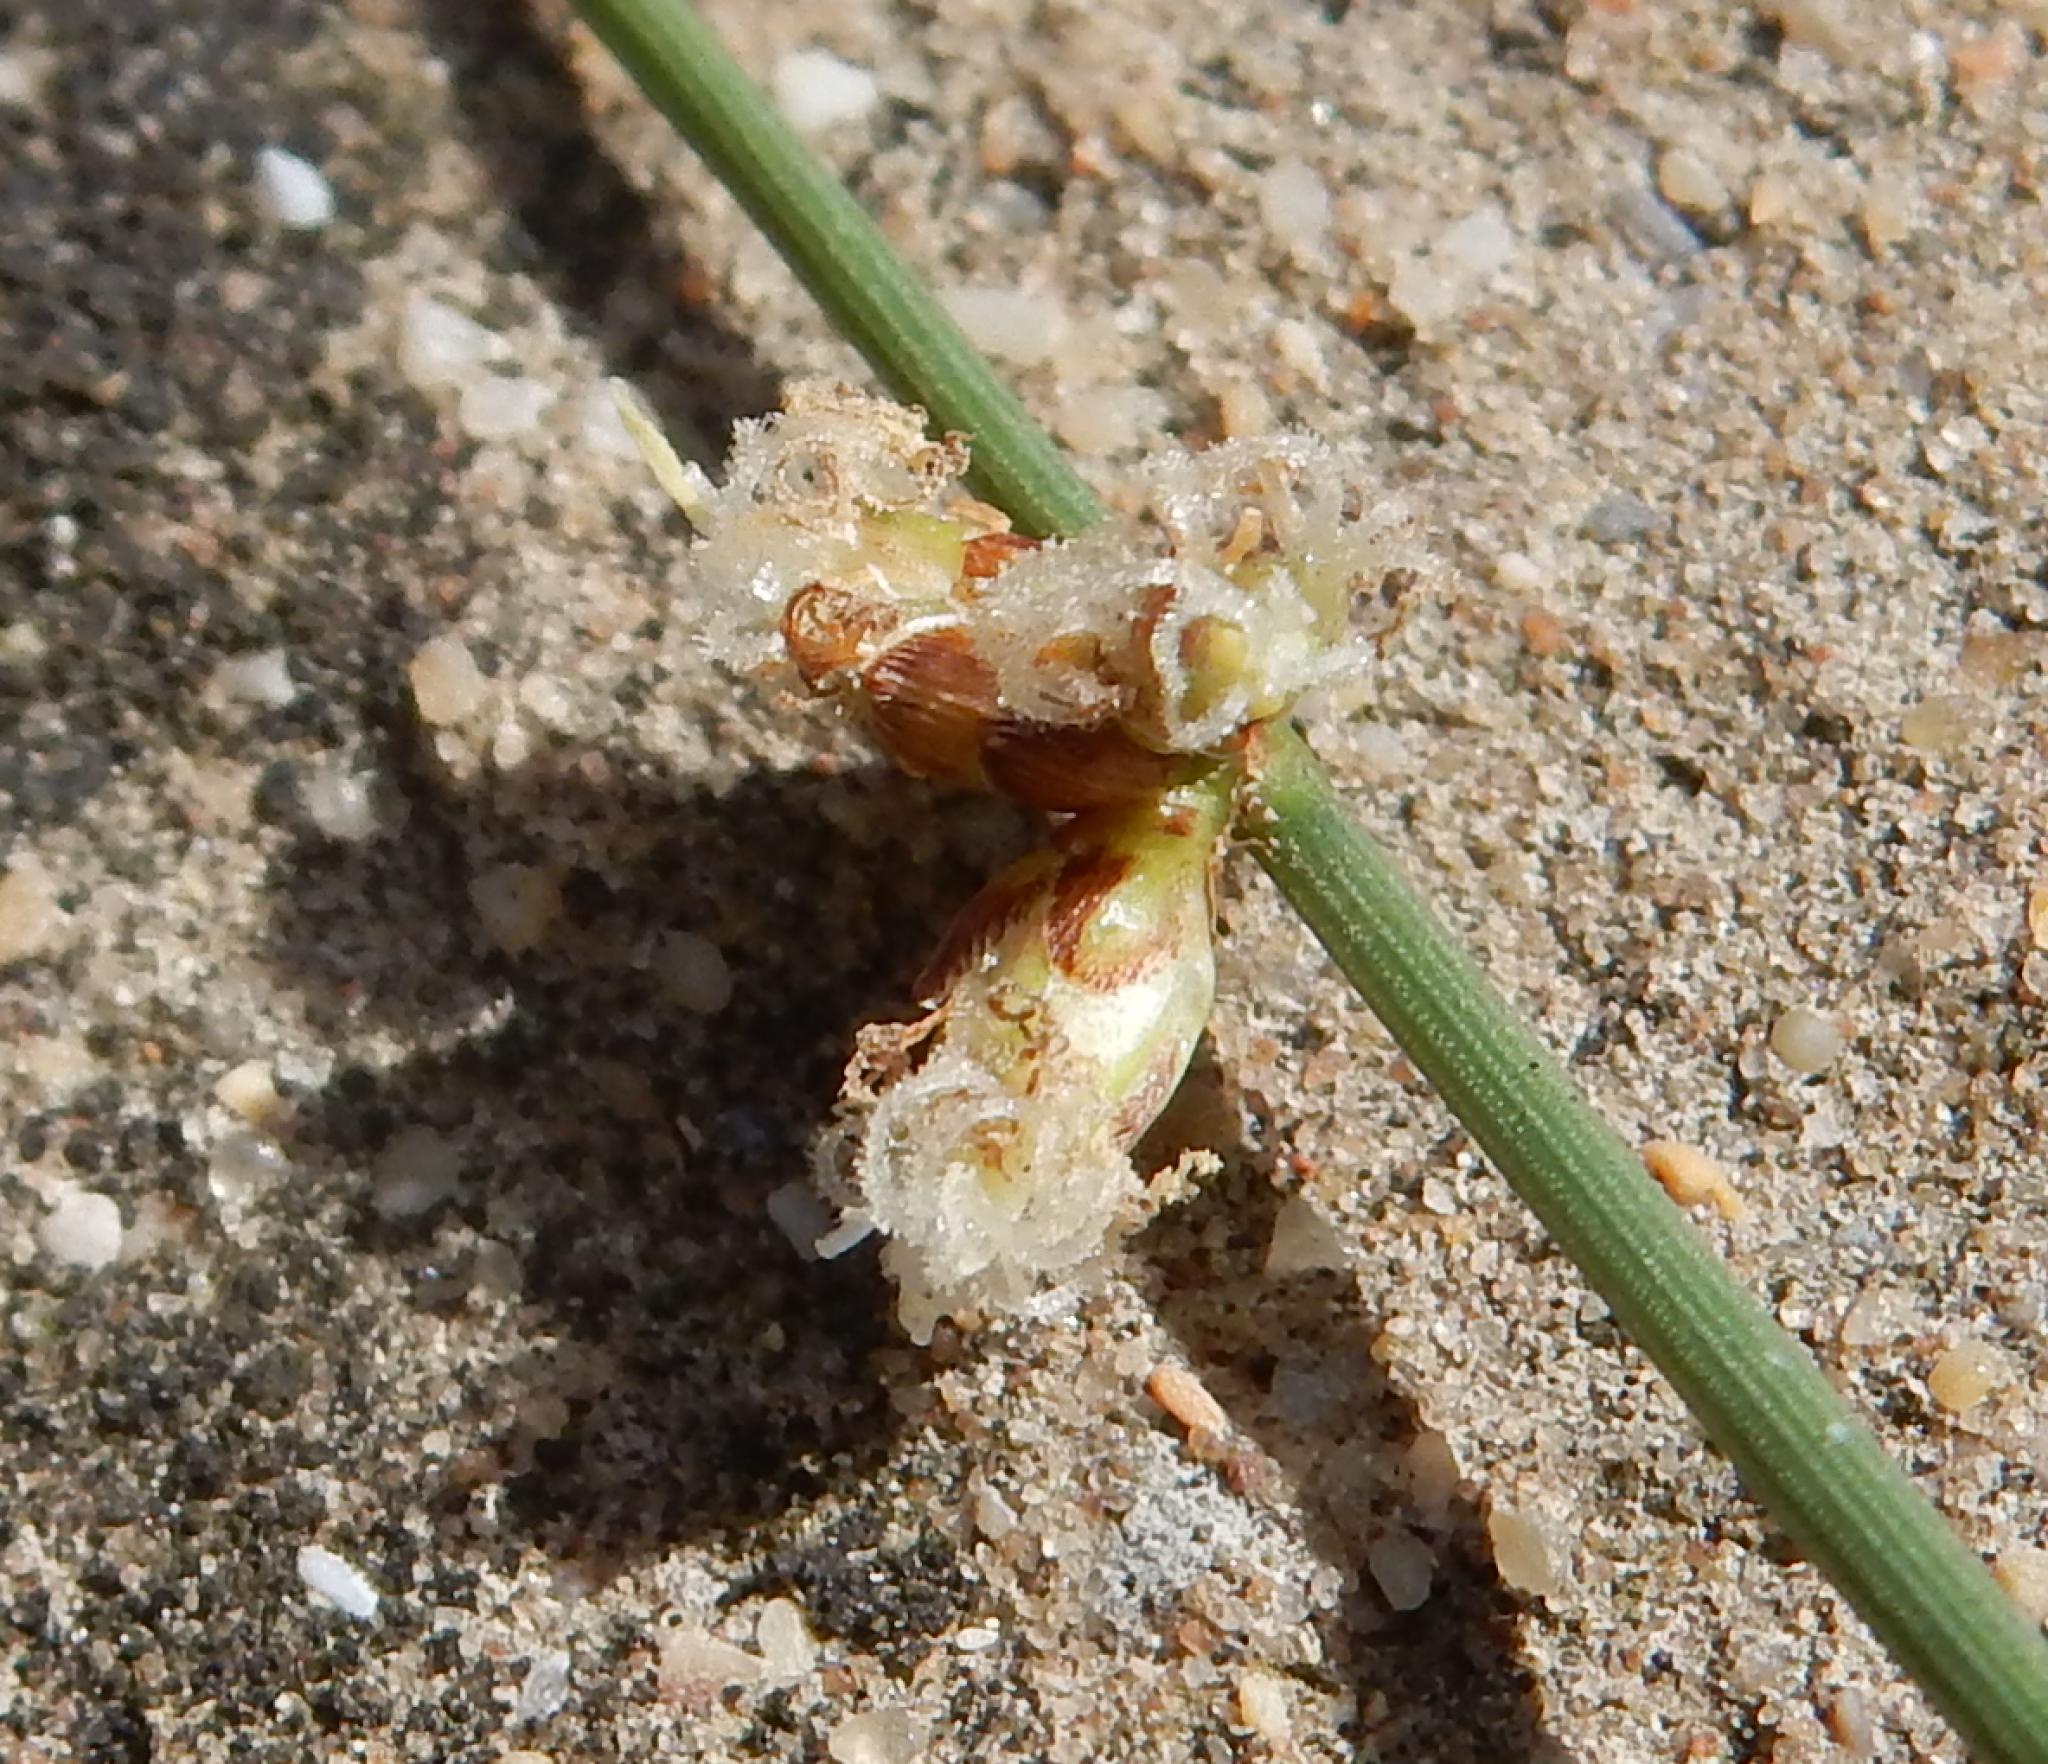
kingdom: Plantae
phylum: Tracheophyta
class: Liliopsida
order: Poales
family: Cyperaceae
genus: Ficinia
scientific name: Ficinia lateralis
